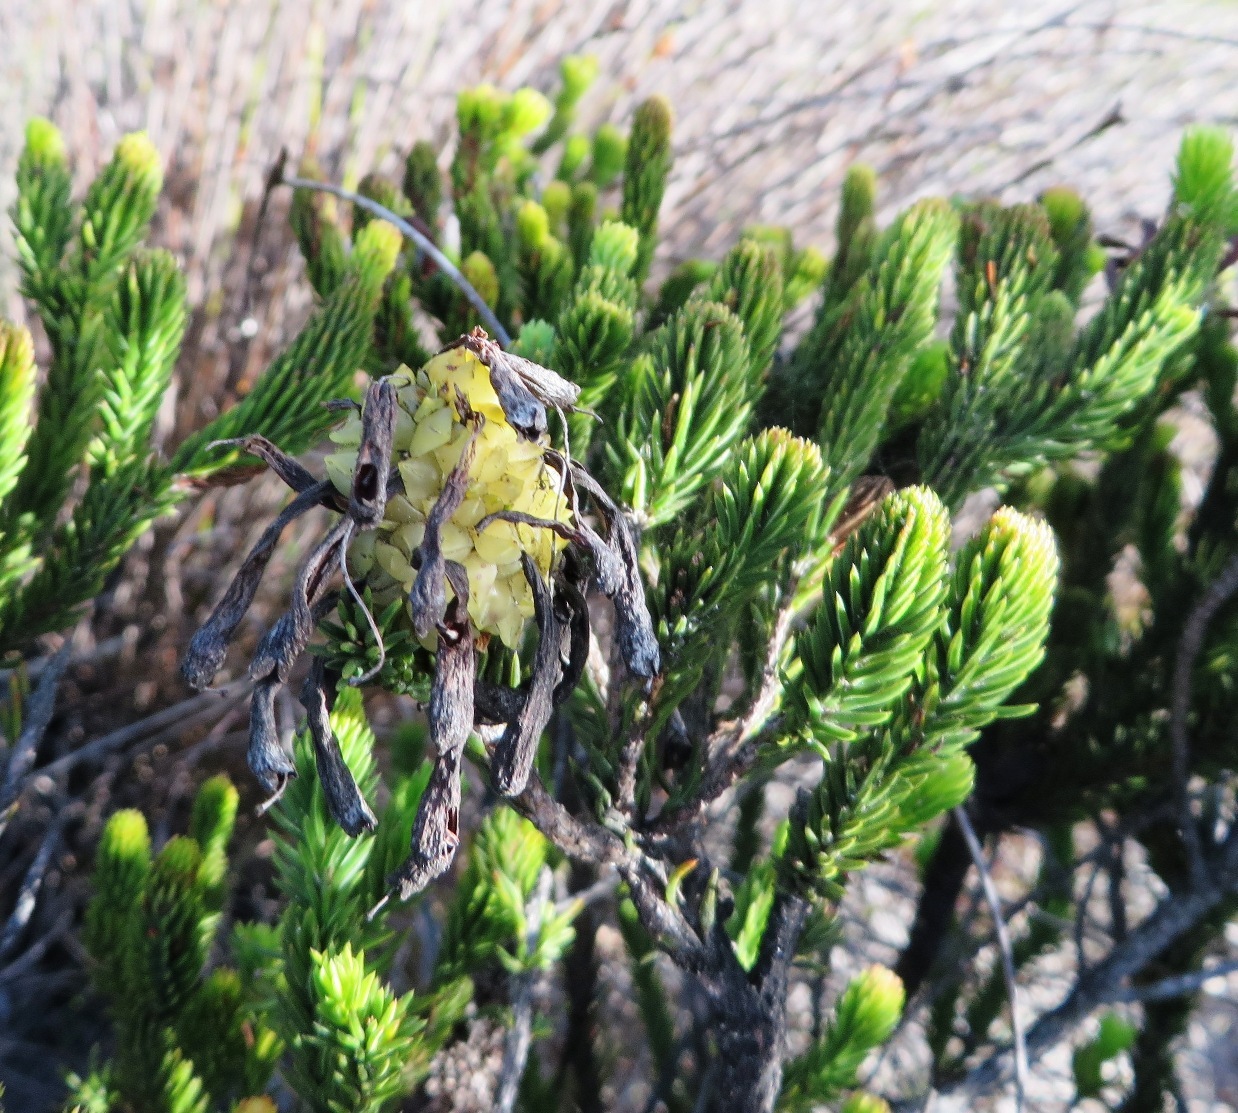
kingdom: Plantae
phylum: Tracheophyta
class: Magnoliopsida
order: Ericales
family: Ericaceae
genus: Erica
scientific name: Erica sessiliflora
